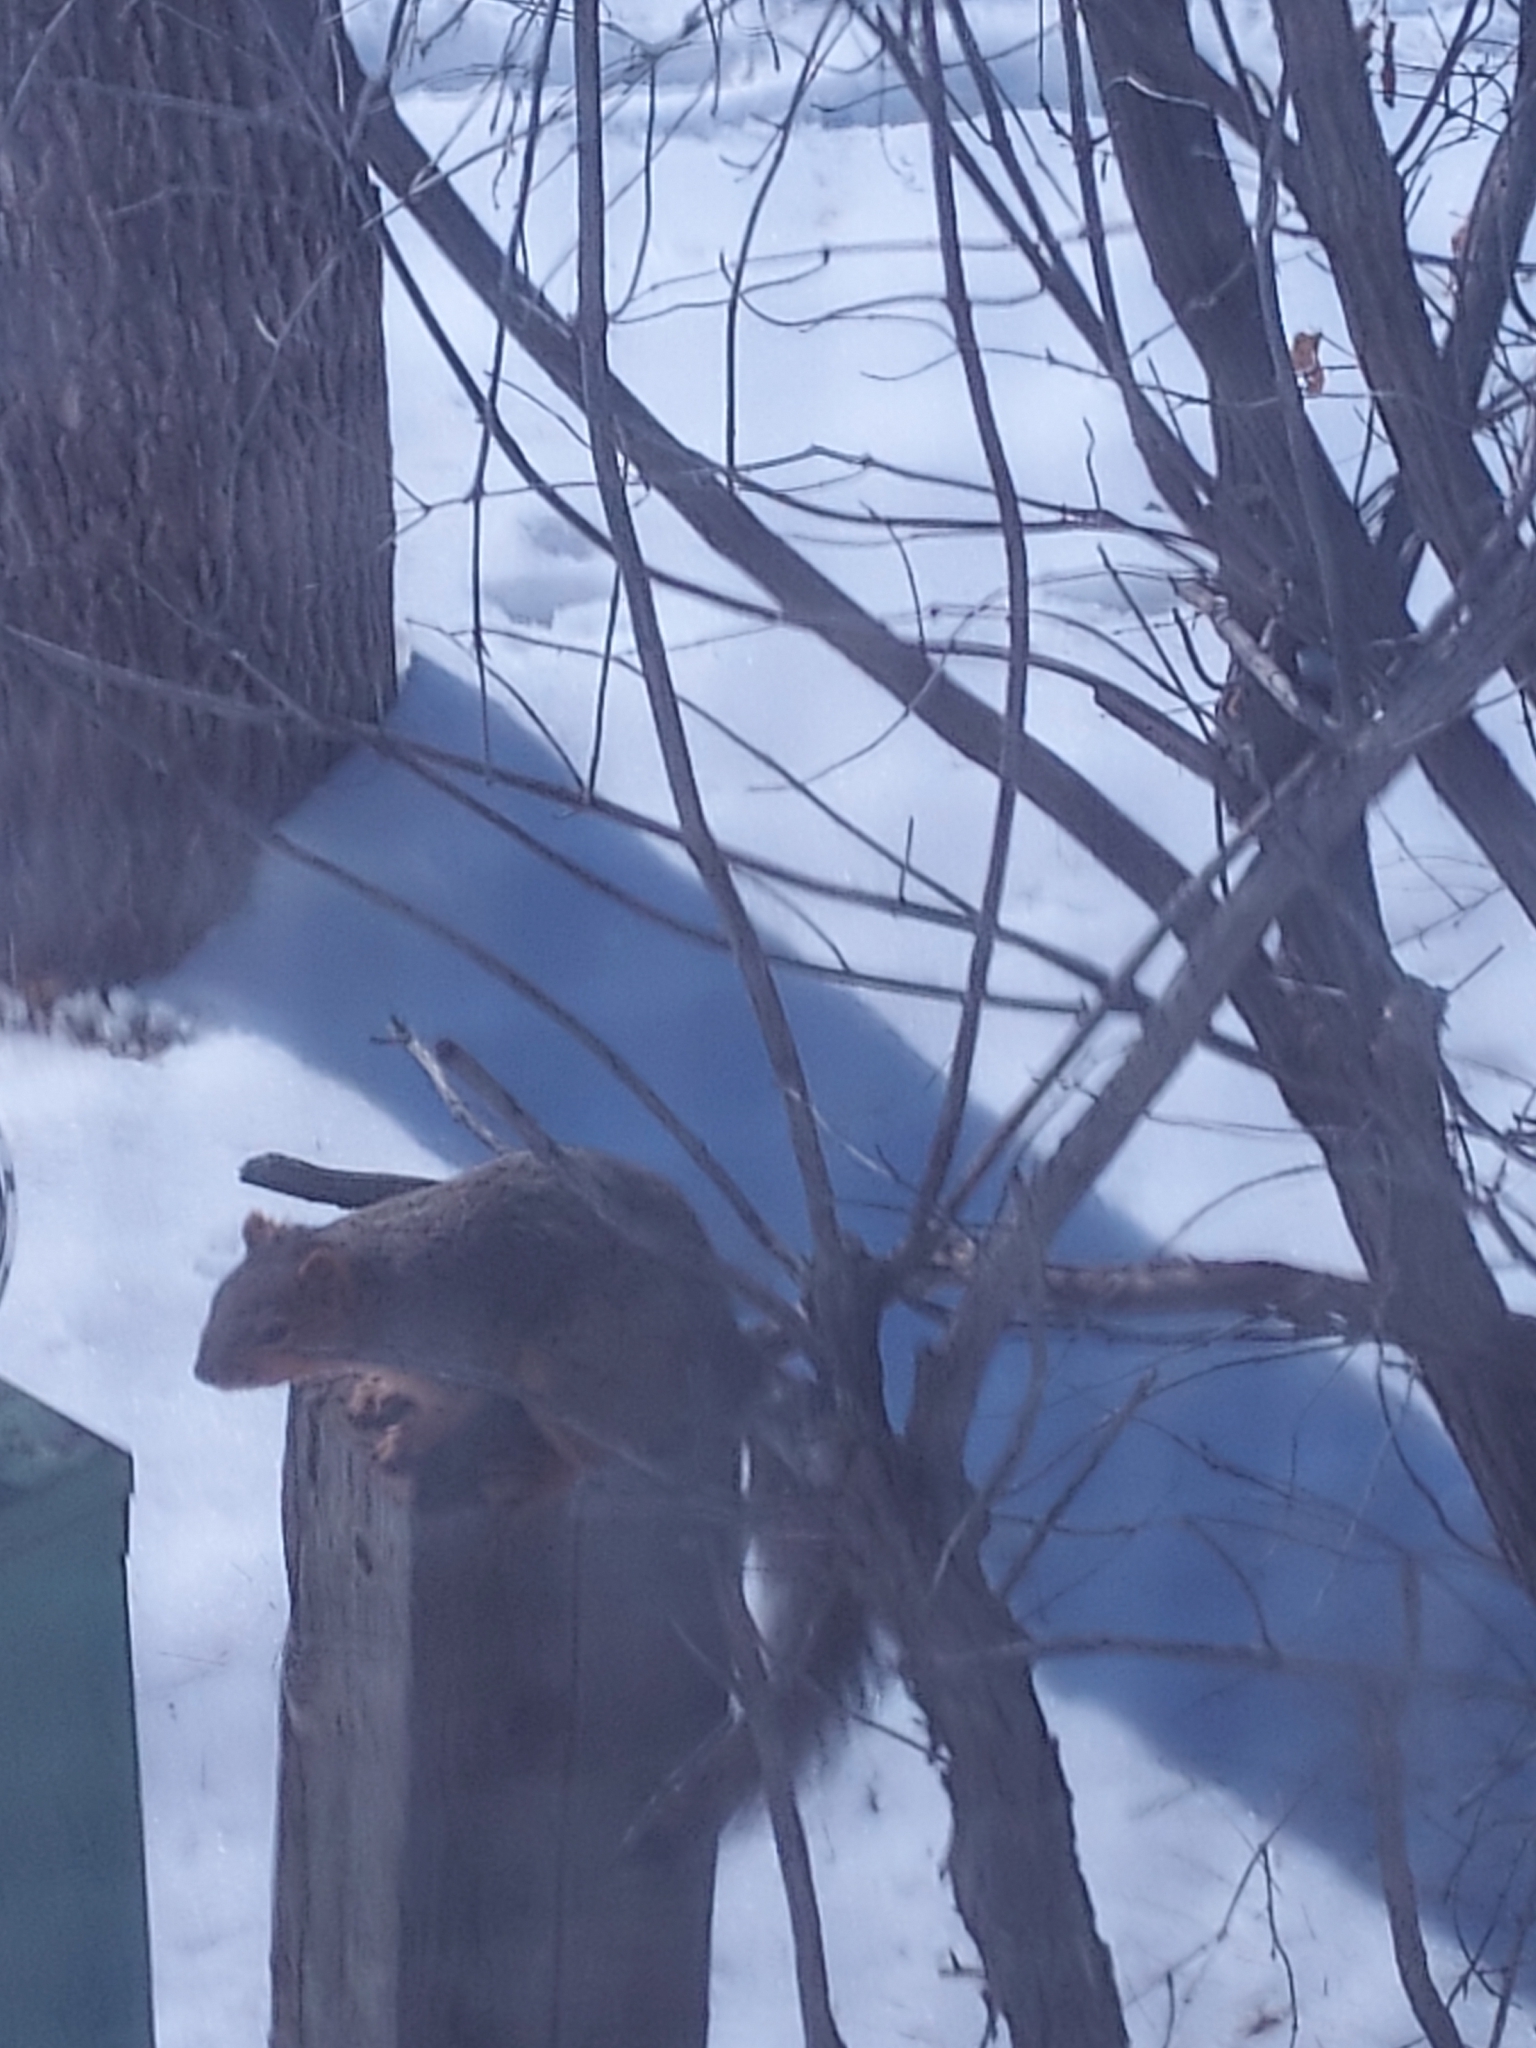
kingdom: Animalia
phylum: Chordata
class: Mammalia
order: Rodentia
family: Sciuridae
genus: Sciurus
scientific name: Sciurus niger
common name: Fox squirrel
